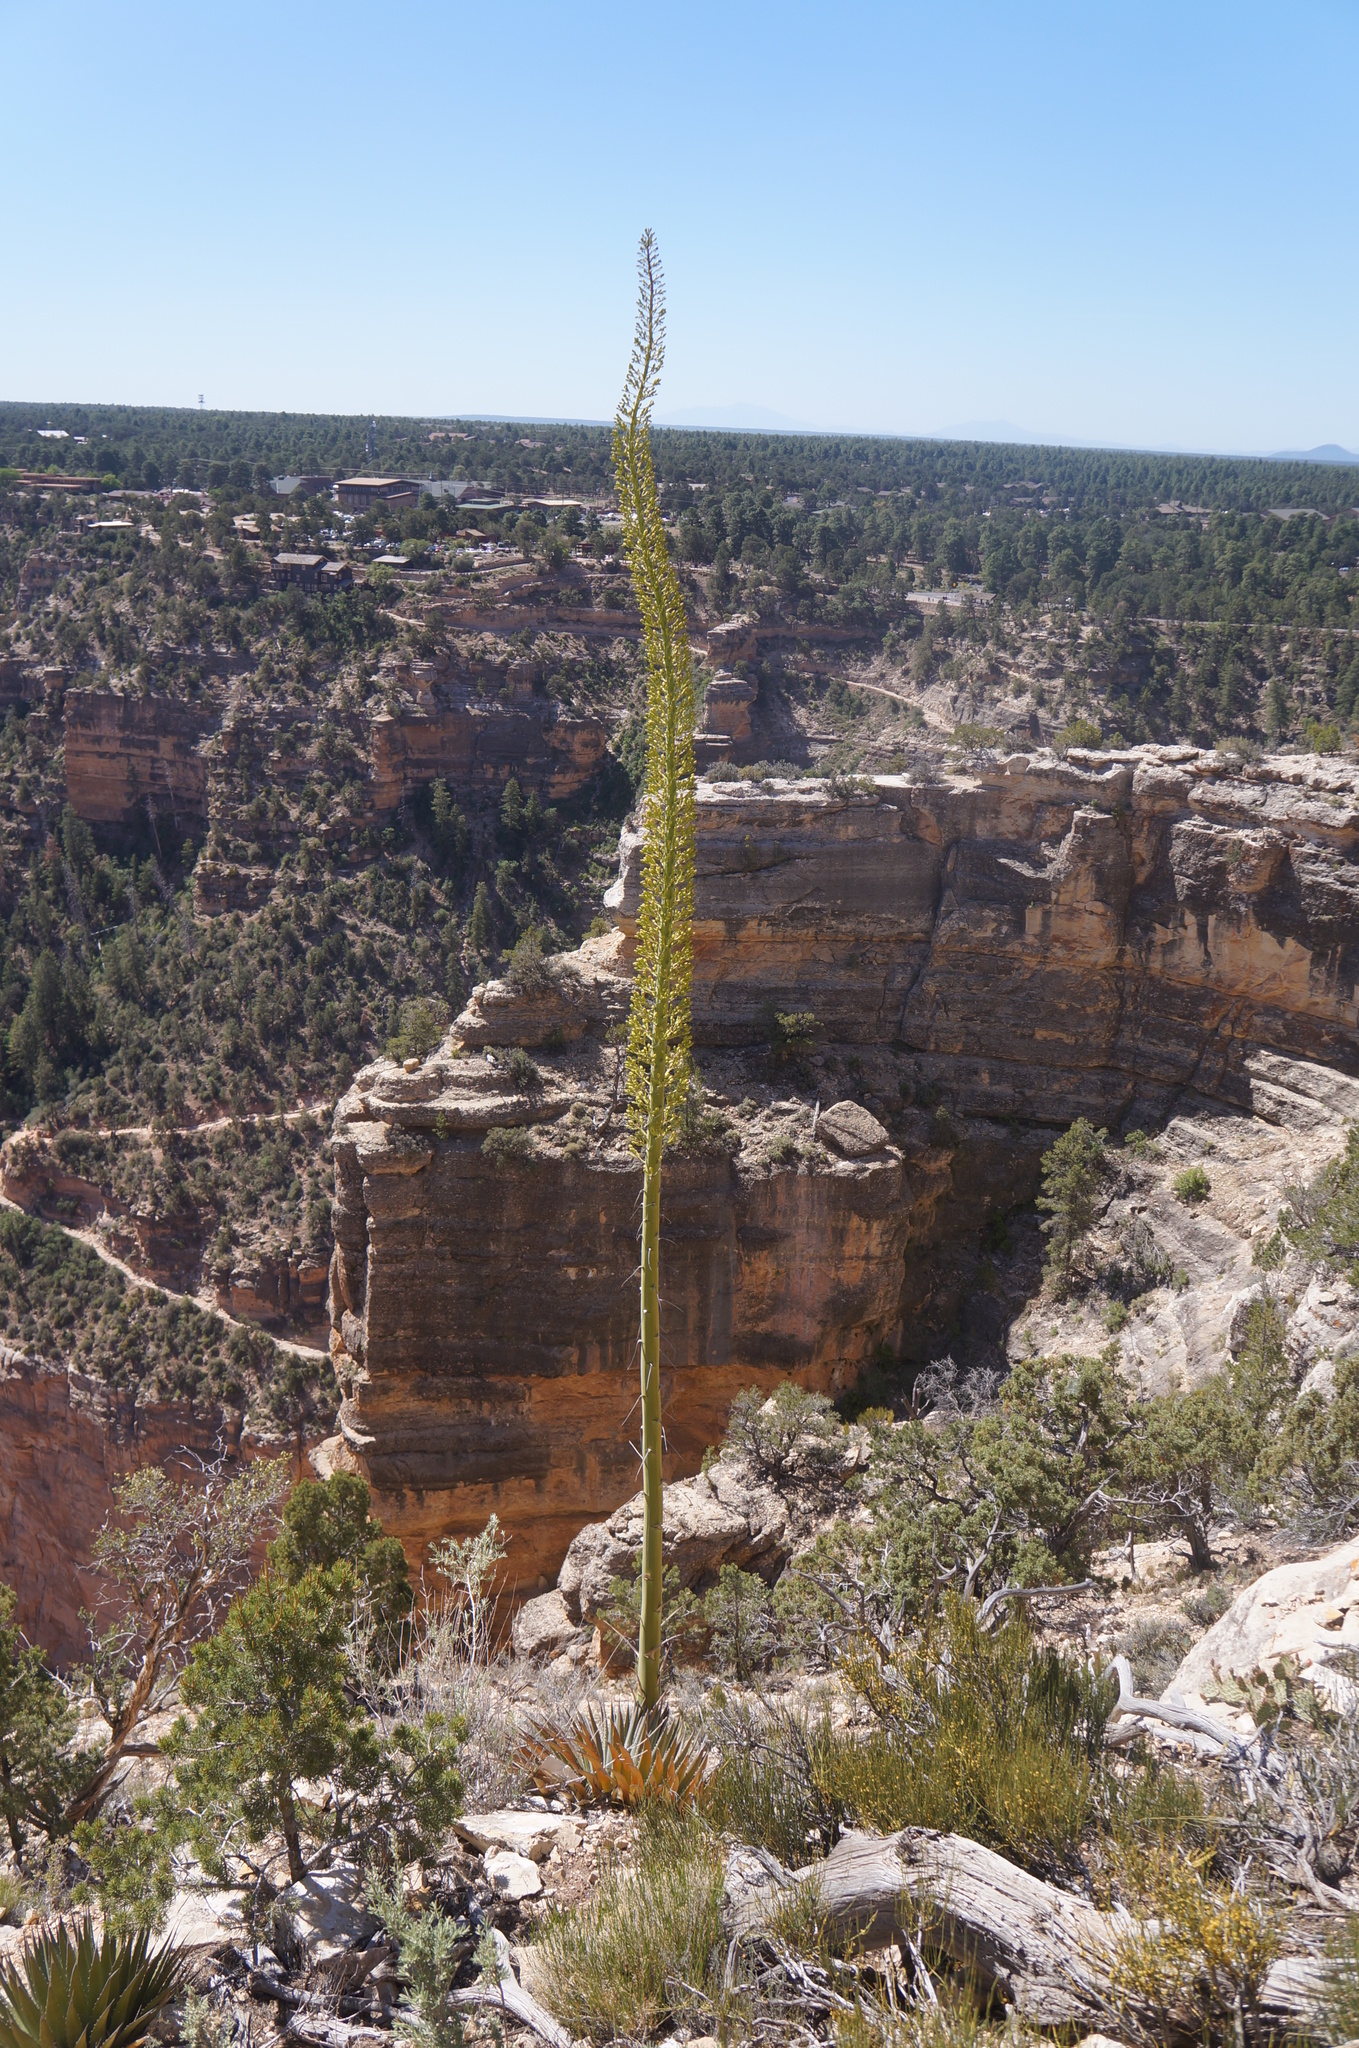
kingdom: Plantae
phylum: Tracheophyta
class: Liliopsida
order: Asparagales
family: Asparagaceae
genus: Agave
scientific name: Agave utahensis
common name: Utah agave
